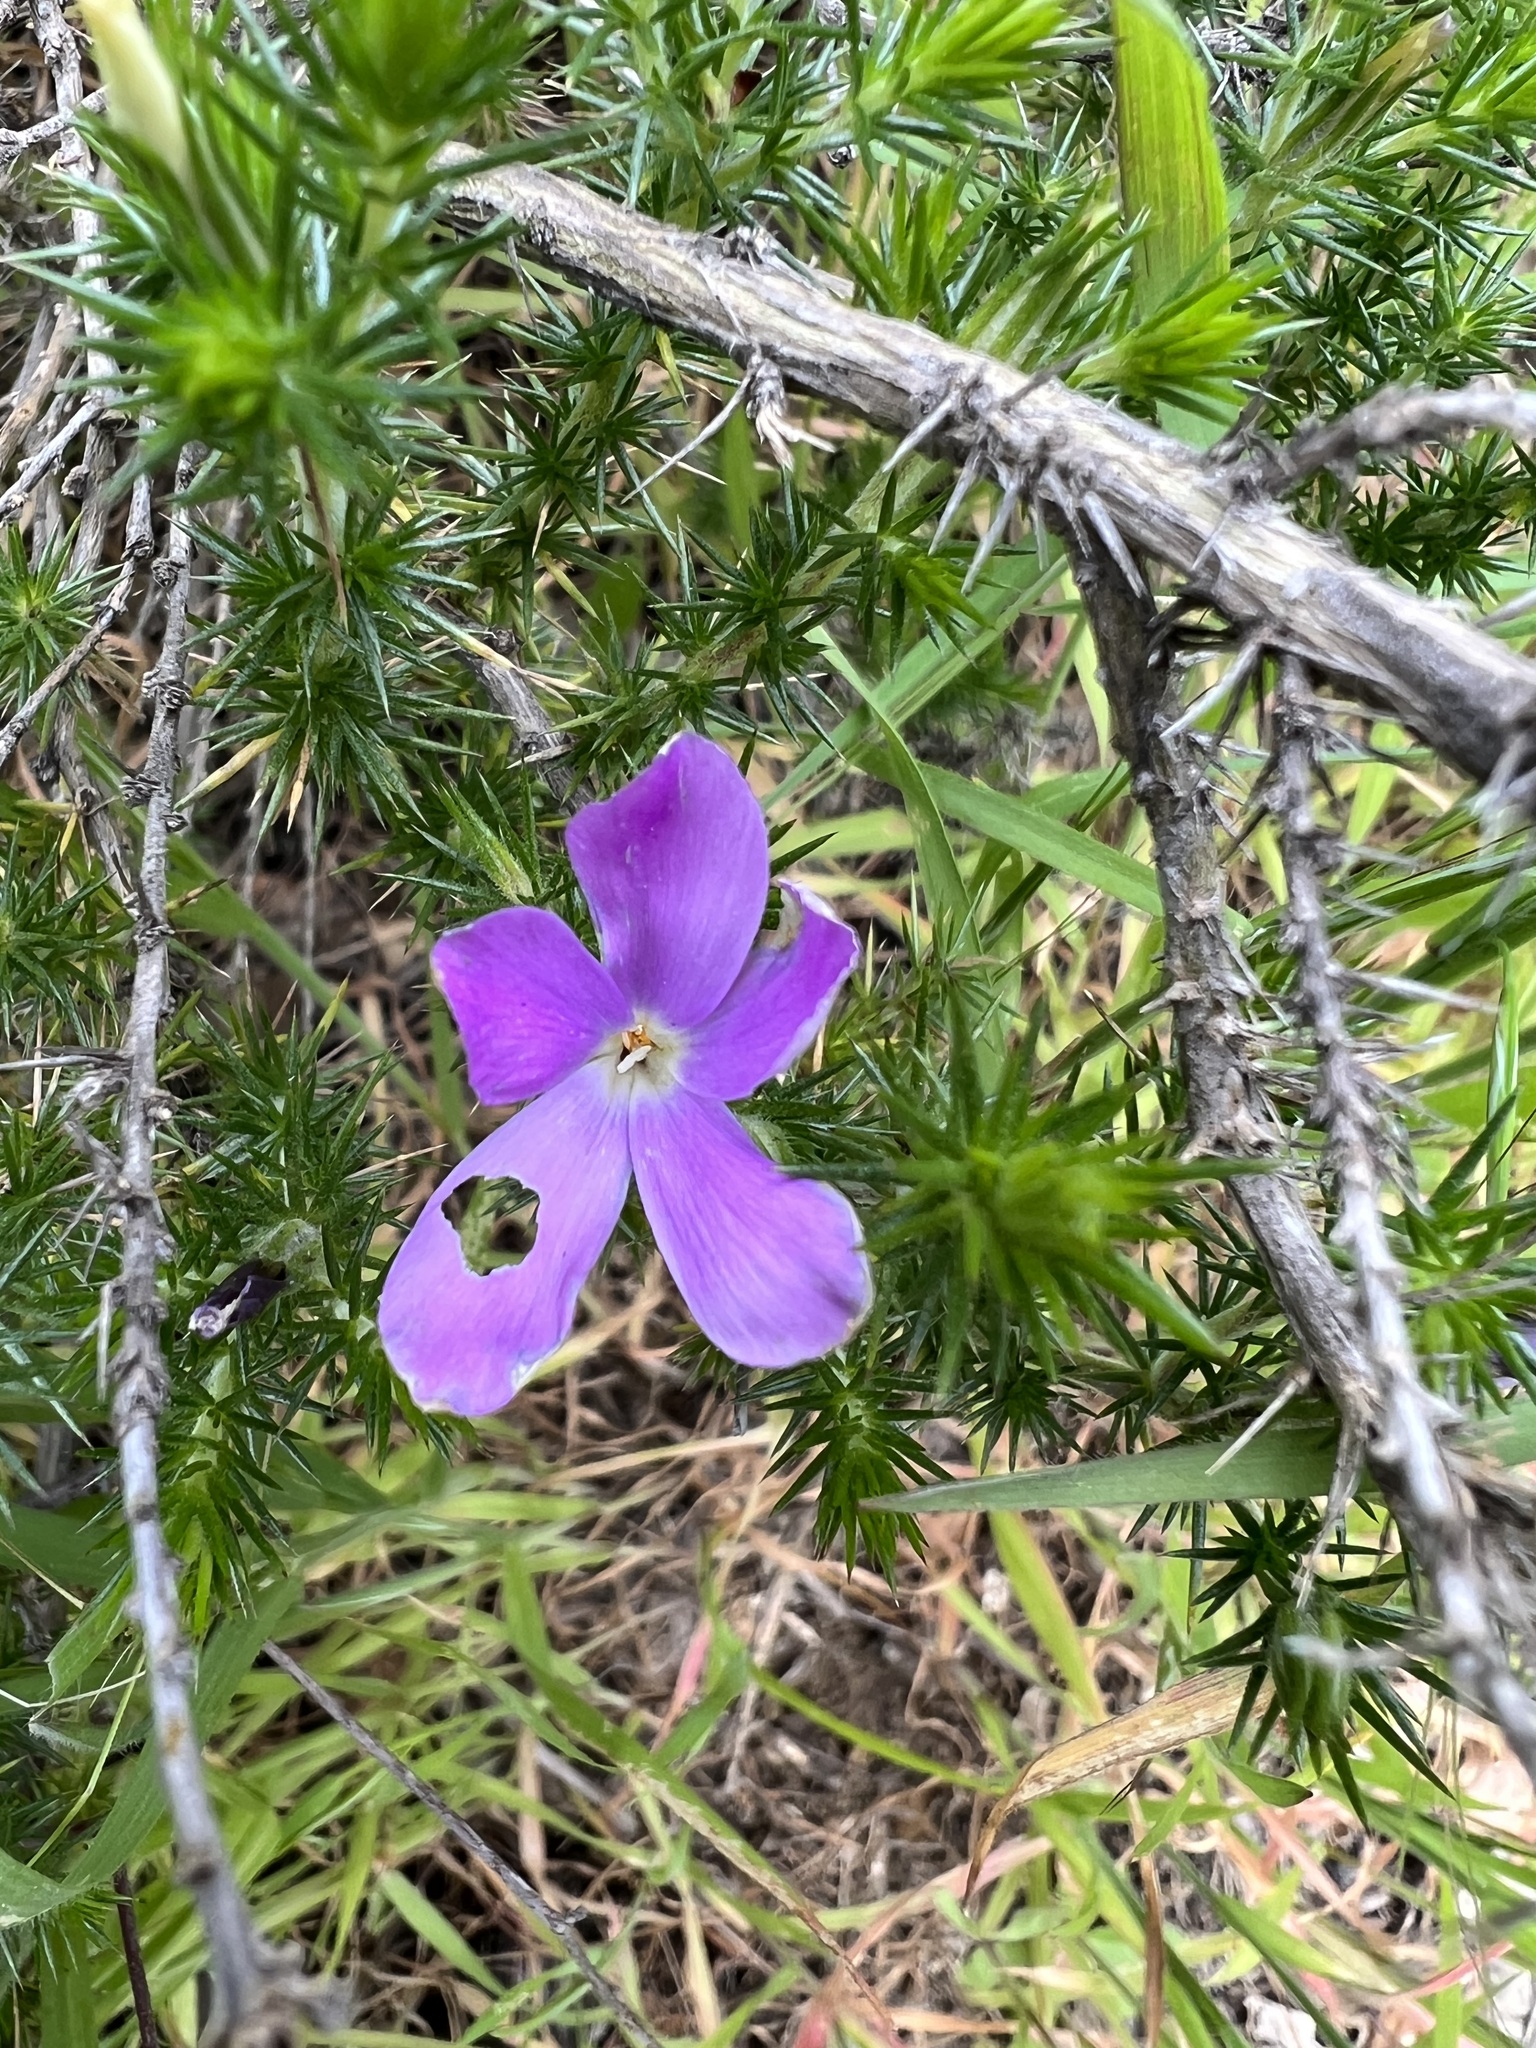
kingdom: Plantae
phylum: Tracheophyta
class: Magnoliopsida
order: Ericales
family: Polemoniaceae
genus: Linanthus
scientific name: Linanthus californicus
